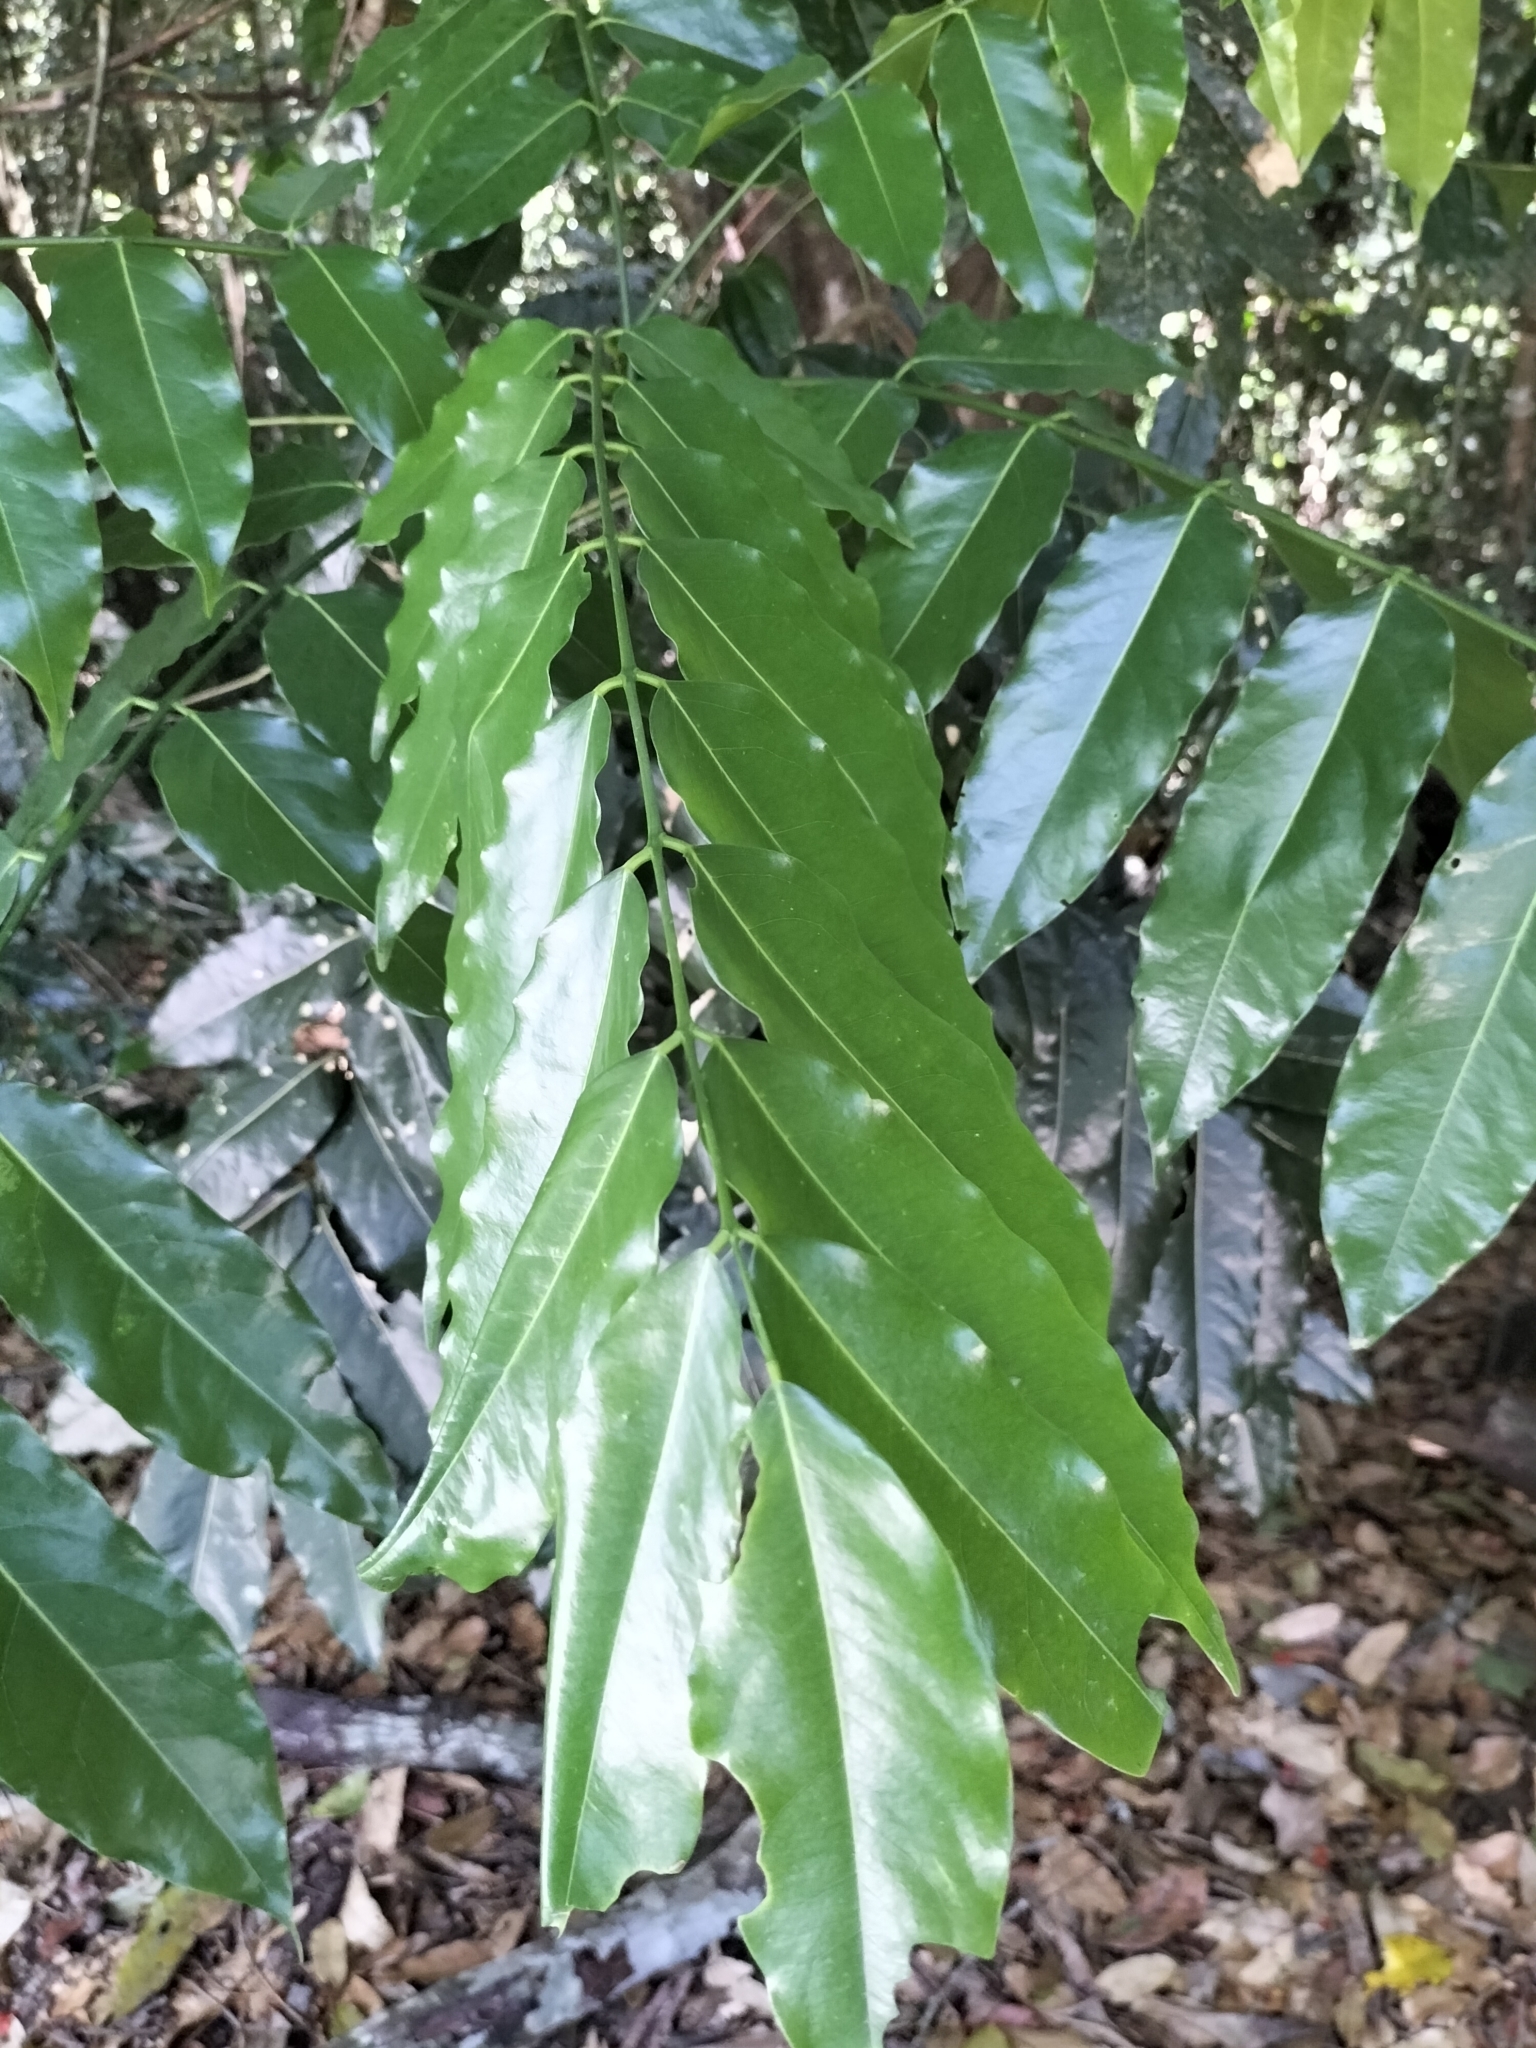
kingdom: Plantae
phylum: Tracheophyta
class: Magnoliopsida
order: Fabales
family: Fabaceae
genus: Castanospermum
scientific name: Castanospermum australe
